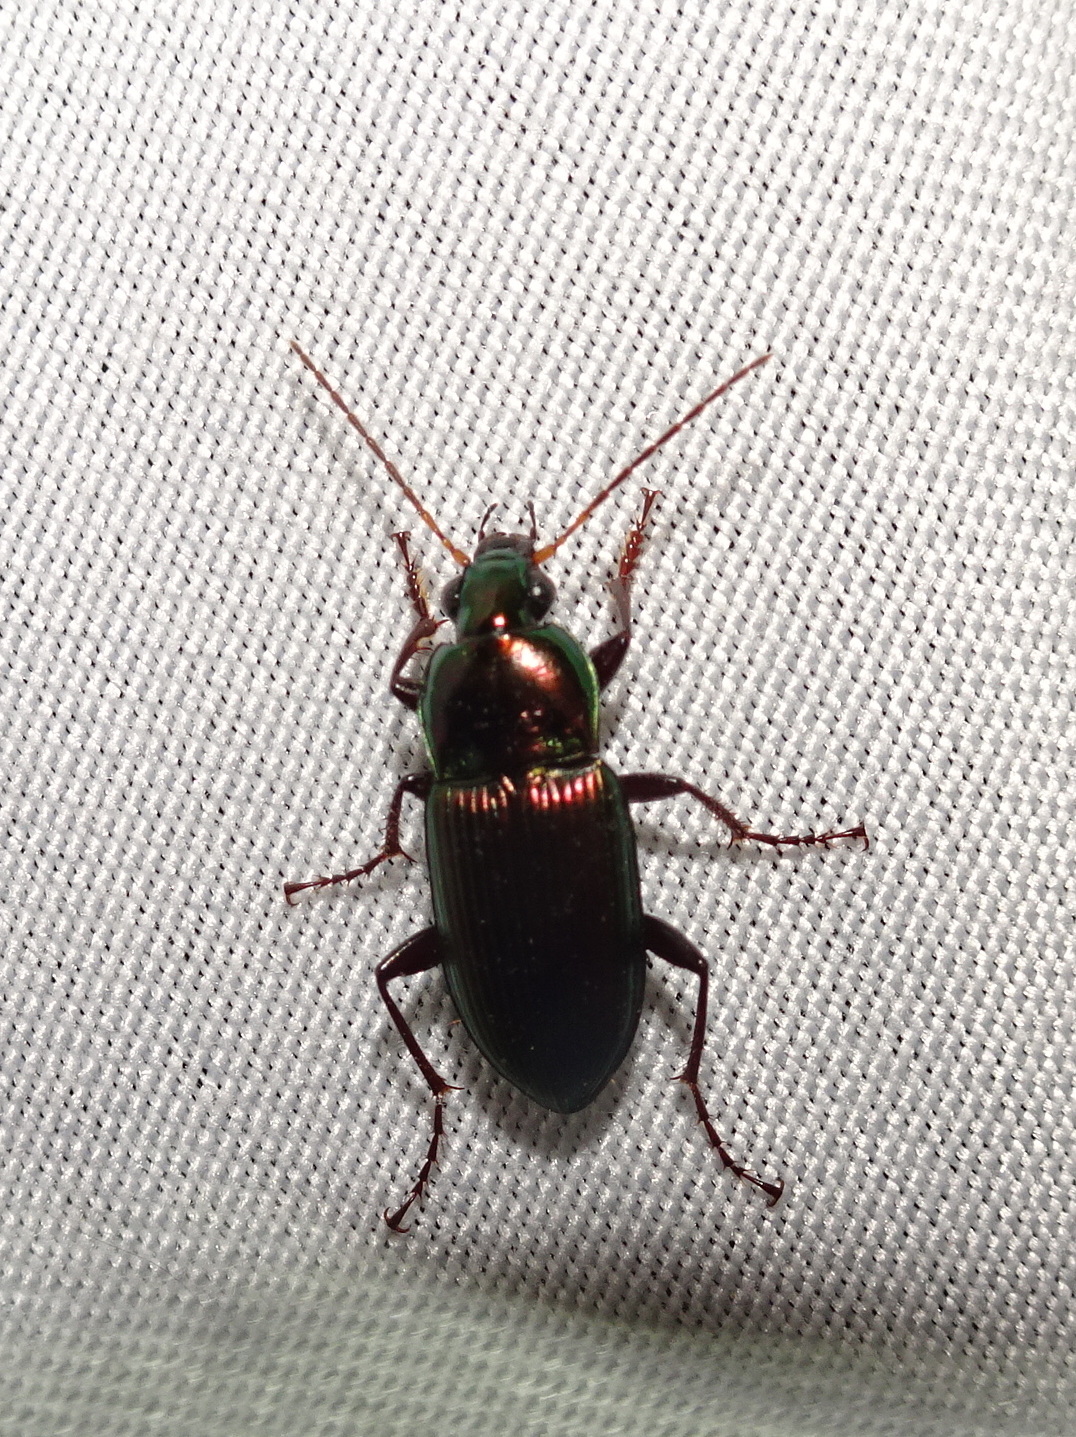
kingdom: Animalia
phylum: Arthropoda
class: Insecta
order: Coleoptera
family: Carabidae
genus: Poecilus
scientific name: Poecilus chalcites
